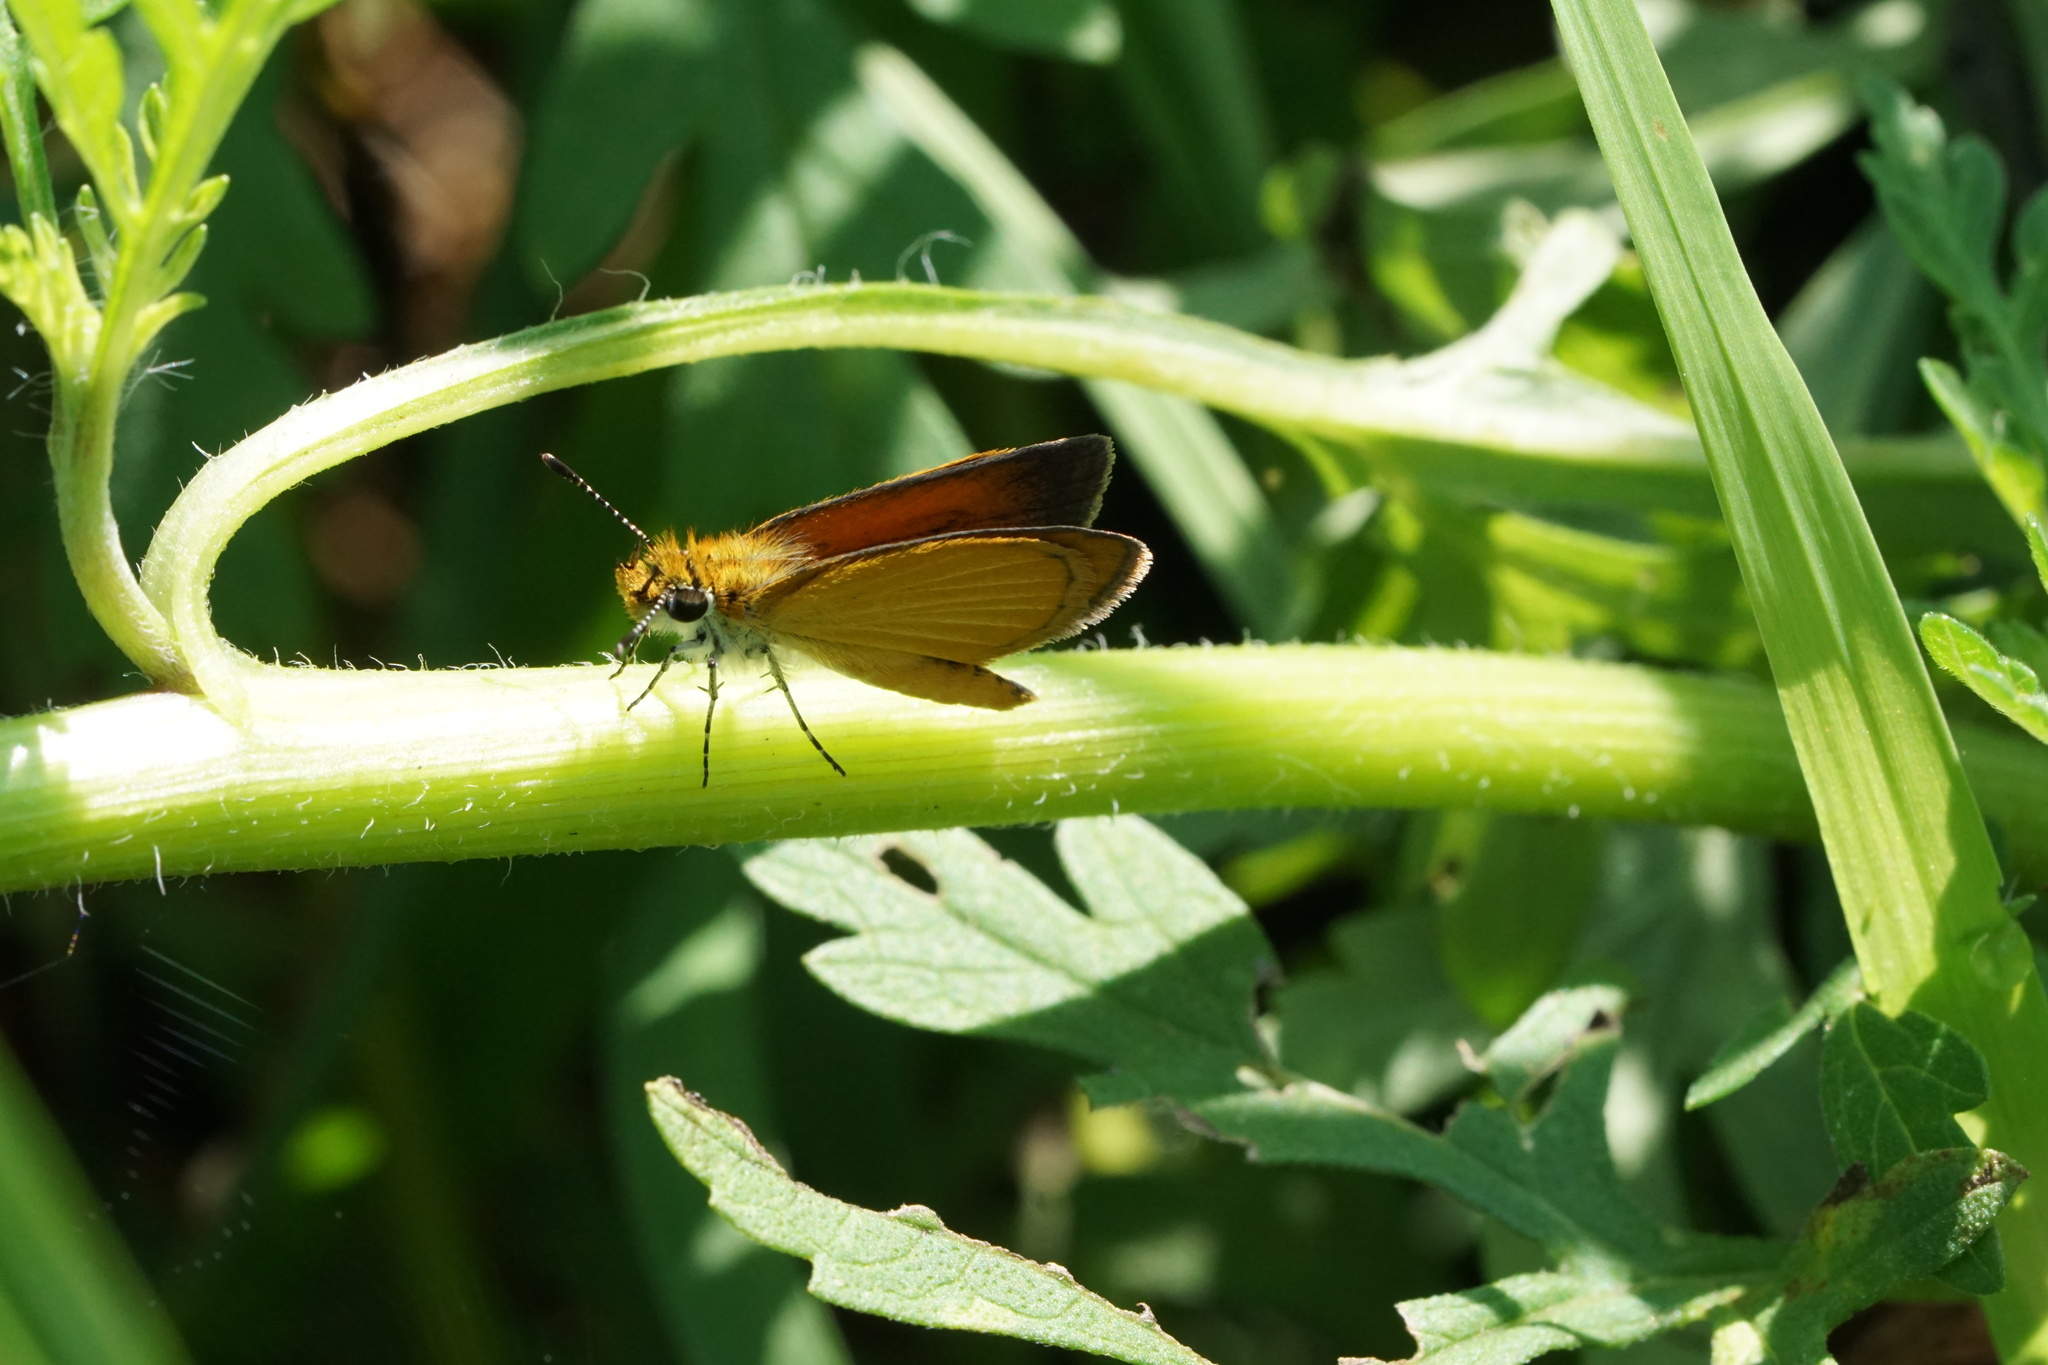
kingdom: Animalia
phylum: Arthropoda
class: Insecta
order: Lepidoptera
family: Hesperiidae
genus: Ancyloxypha
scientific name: Ancyloxypha numitor
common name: Least skipper
